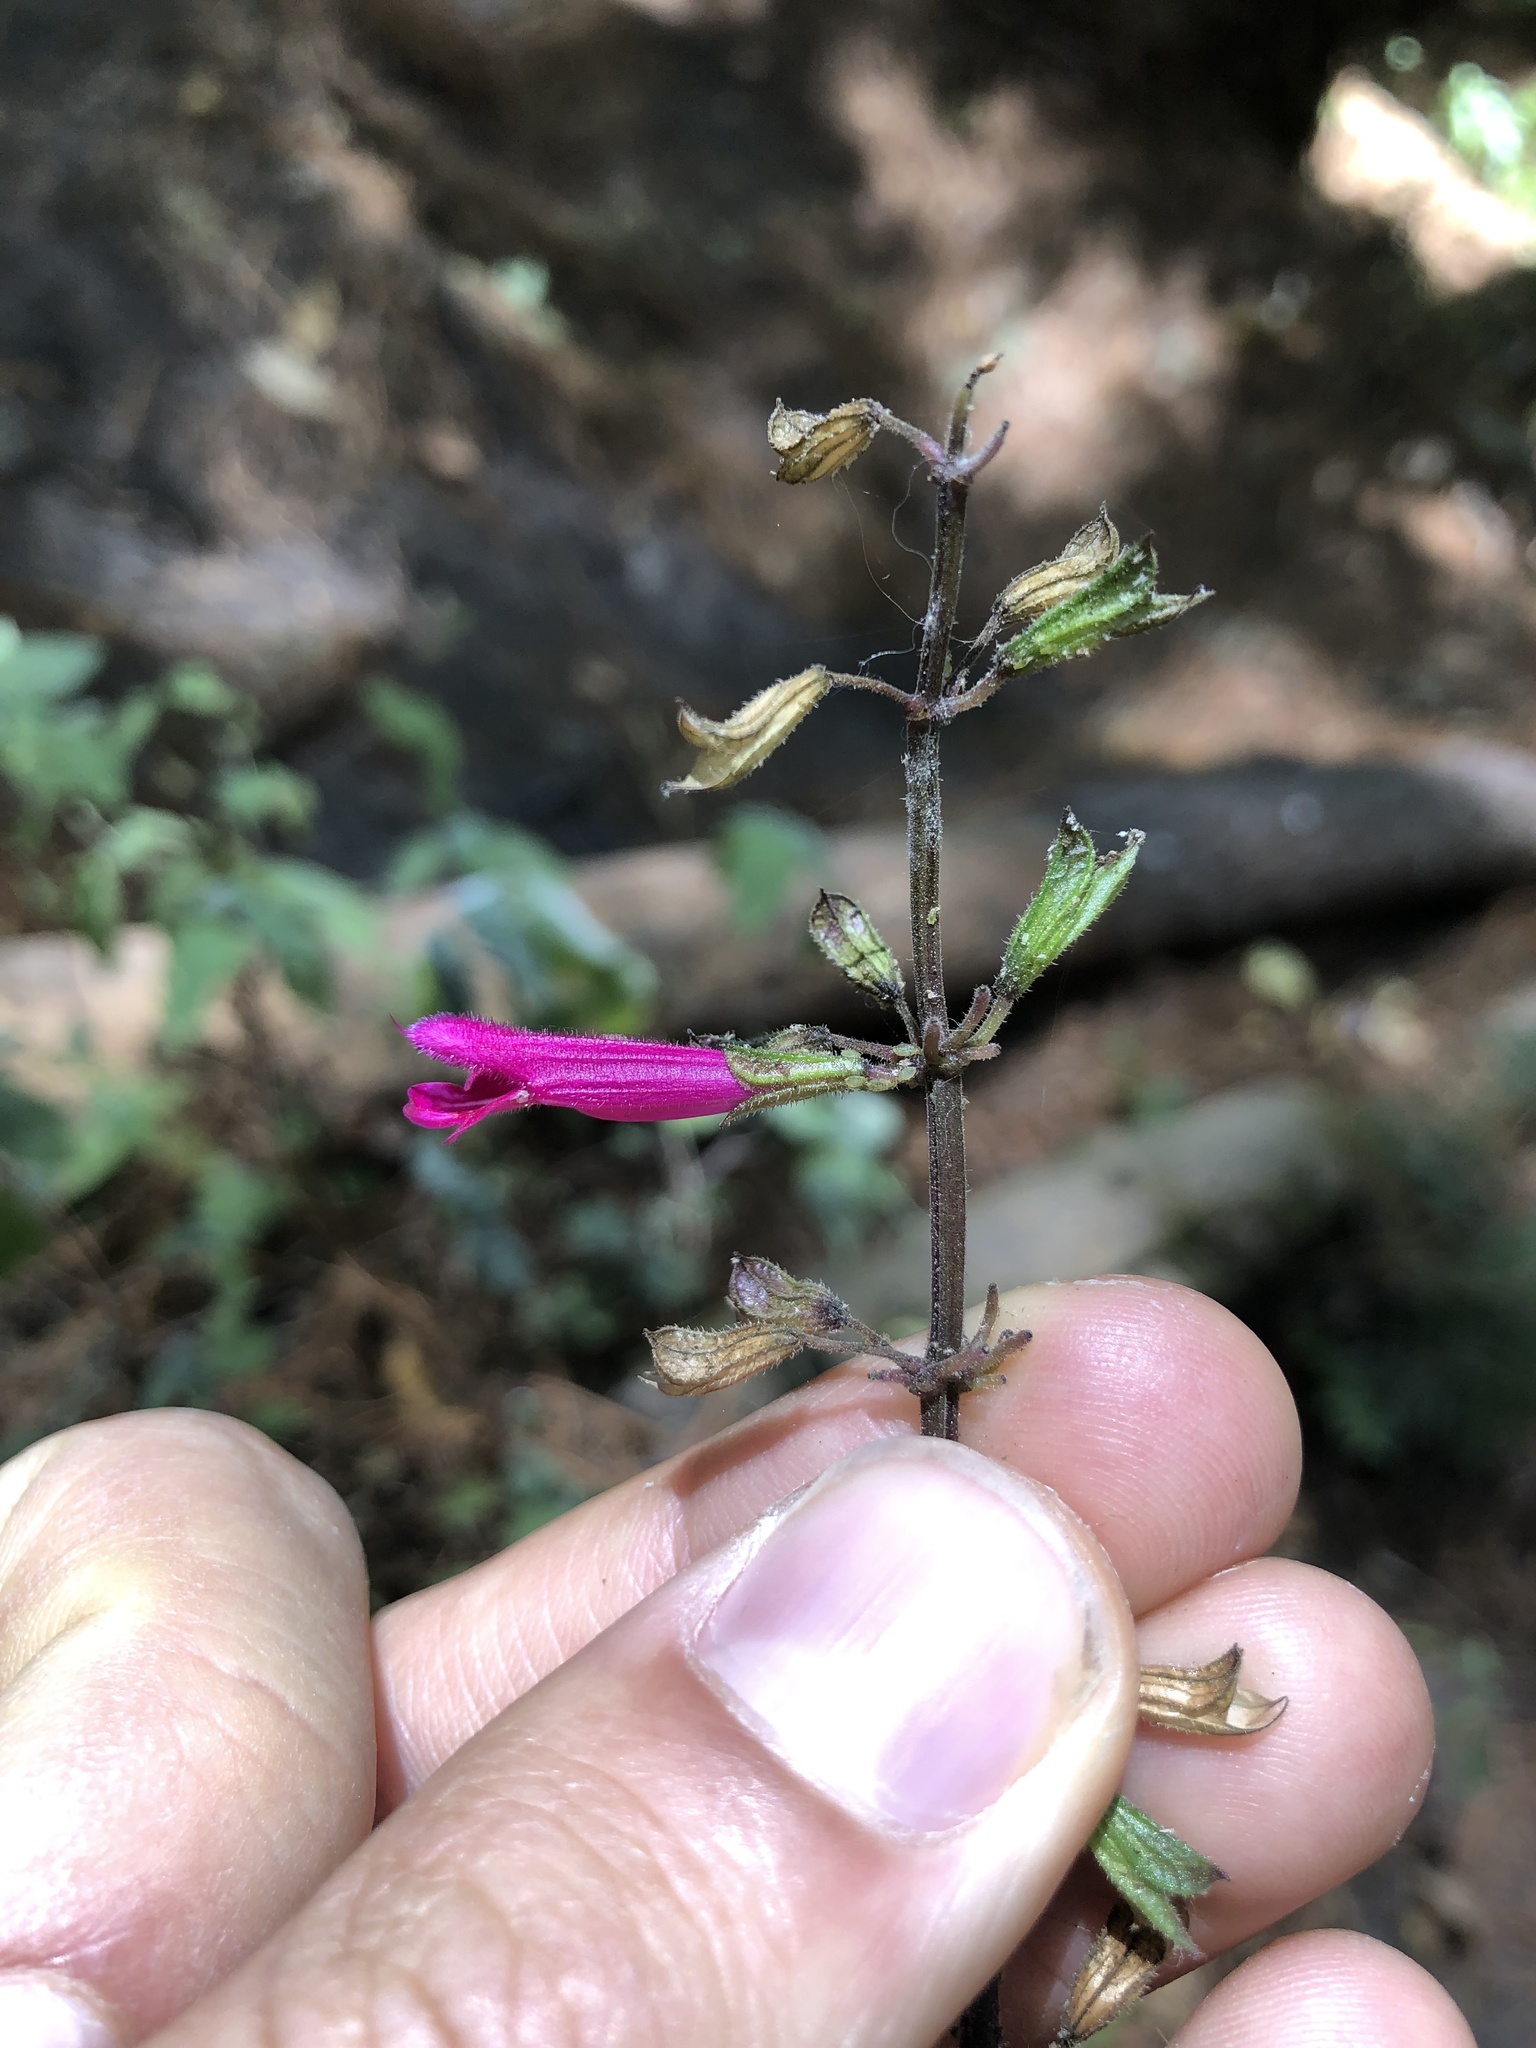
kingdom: Plantae
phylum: Tracheophyta
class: Magnoliopsida
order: Lamiales
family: Lamiaceae
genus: Salvia
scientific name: Salvia punicans
